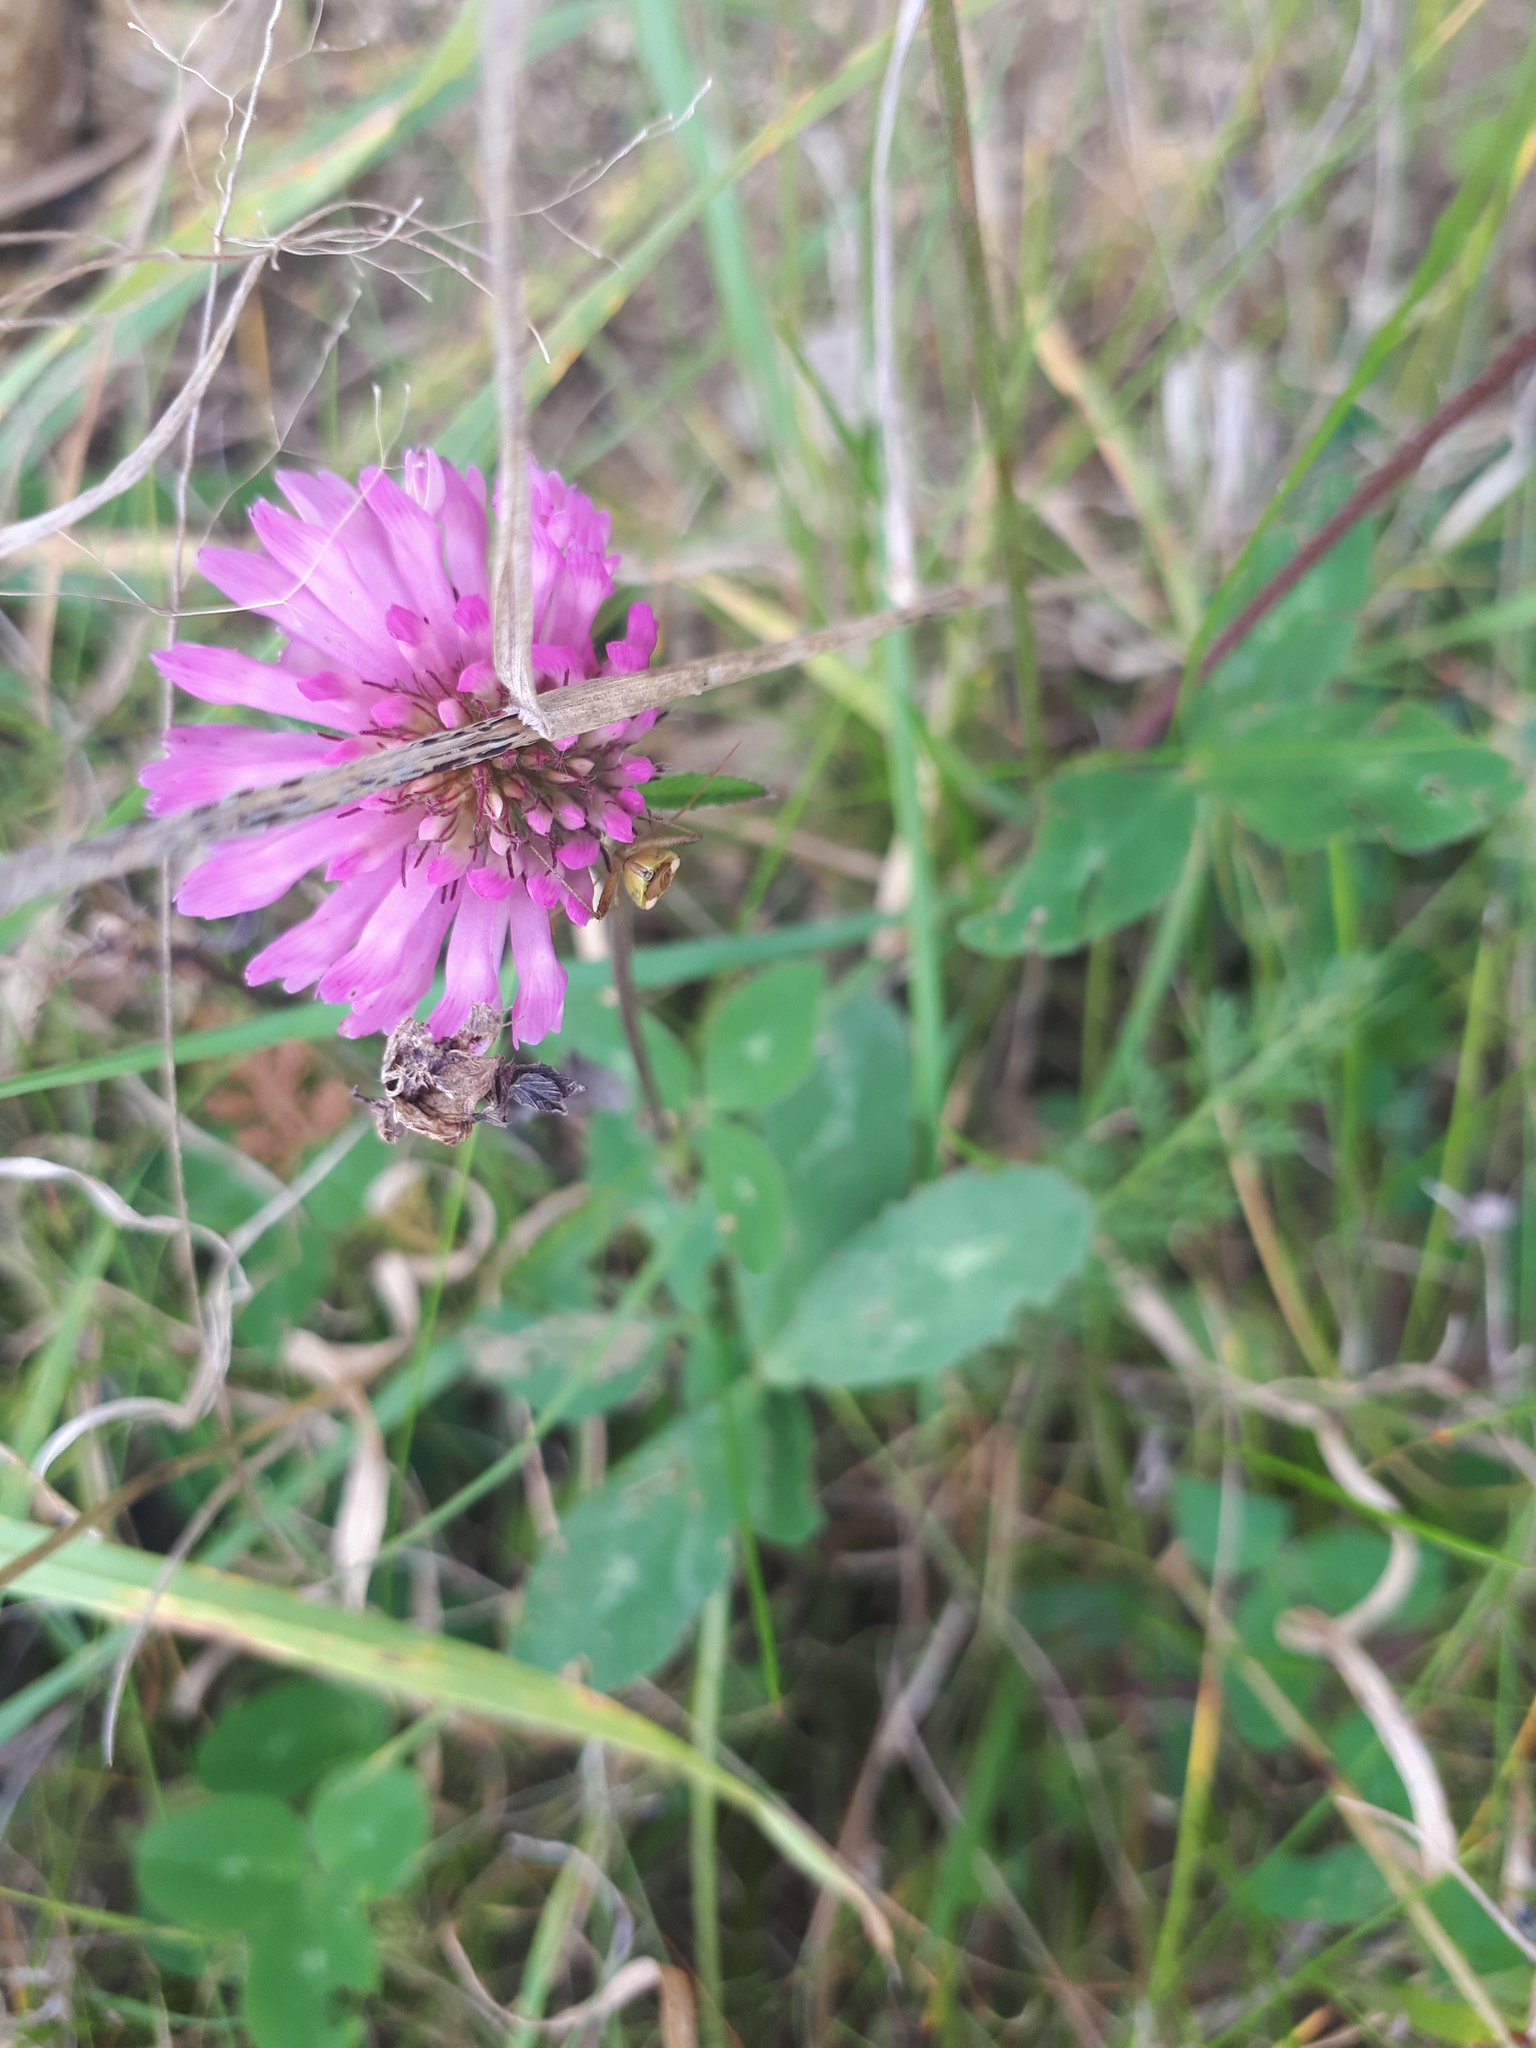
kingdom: Plantae
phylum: Tracheophyta
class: Magnoliopsida
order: Fabales
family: Fabaceae
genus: Trifolium
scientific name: Trifolium pratense
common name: Red clover
